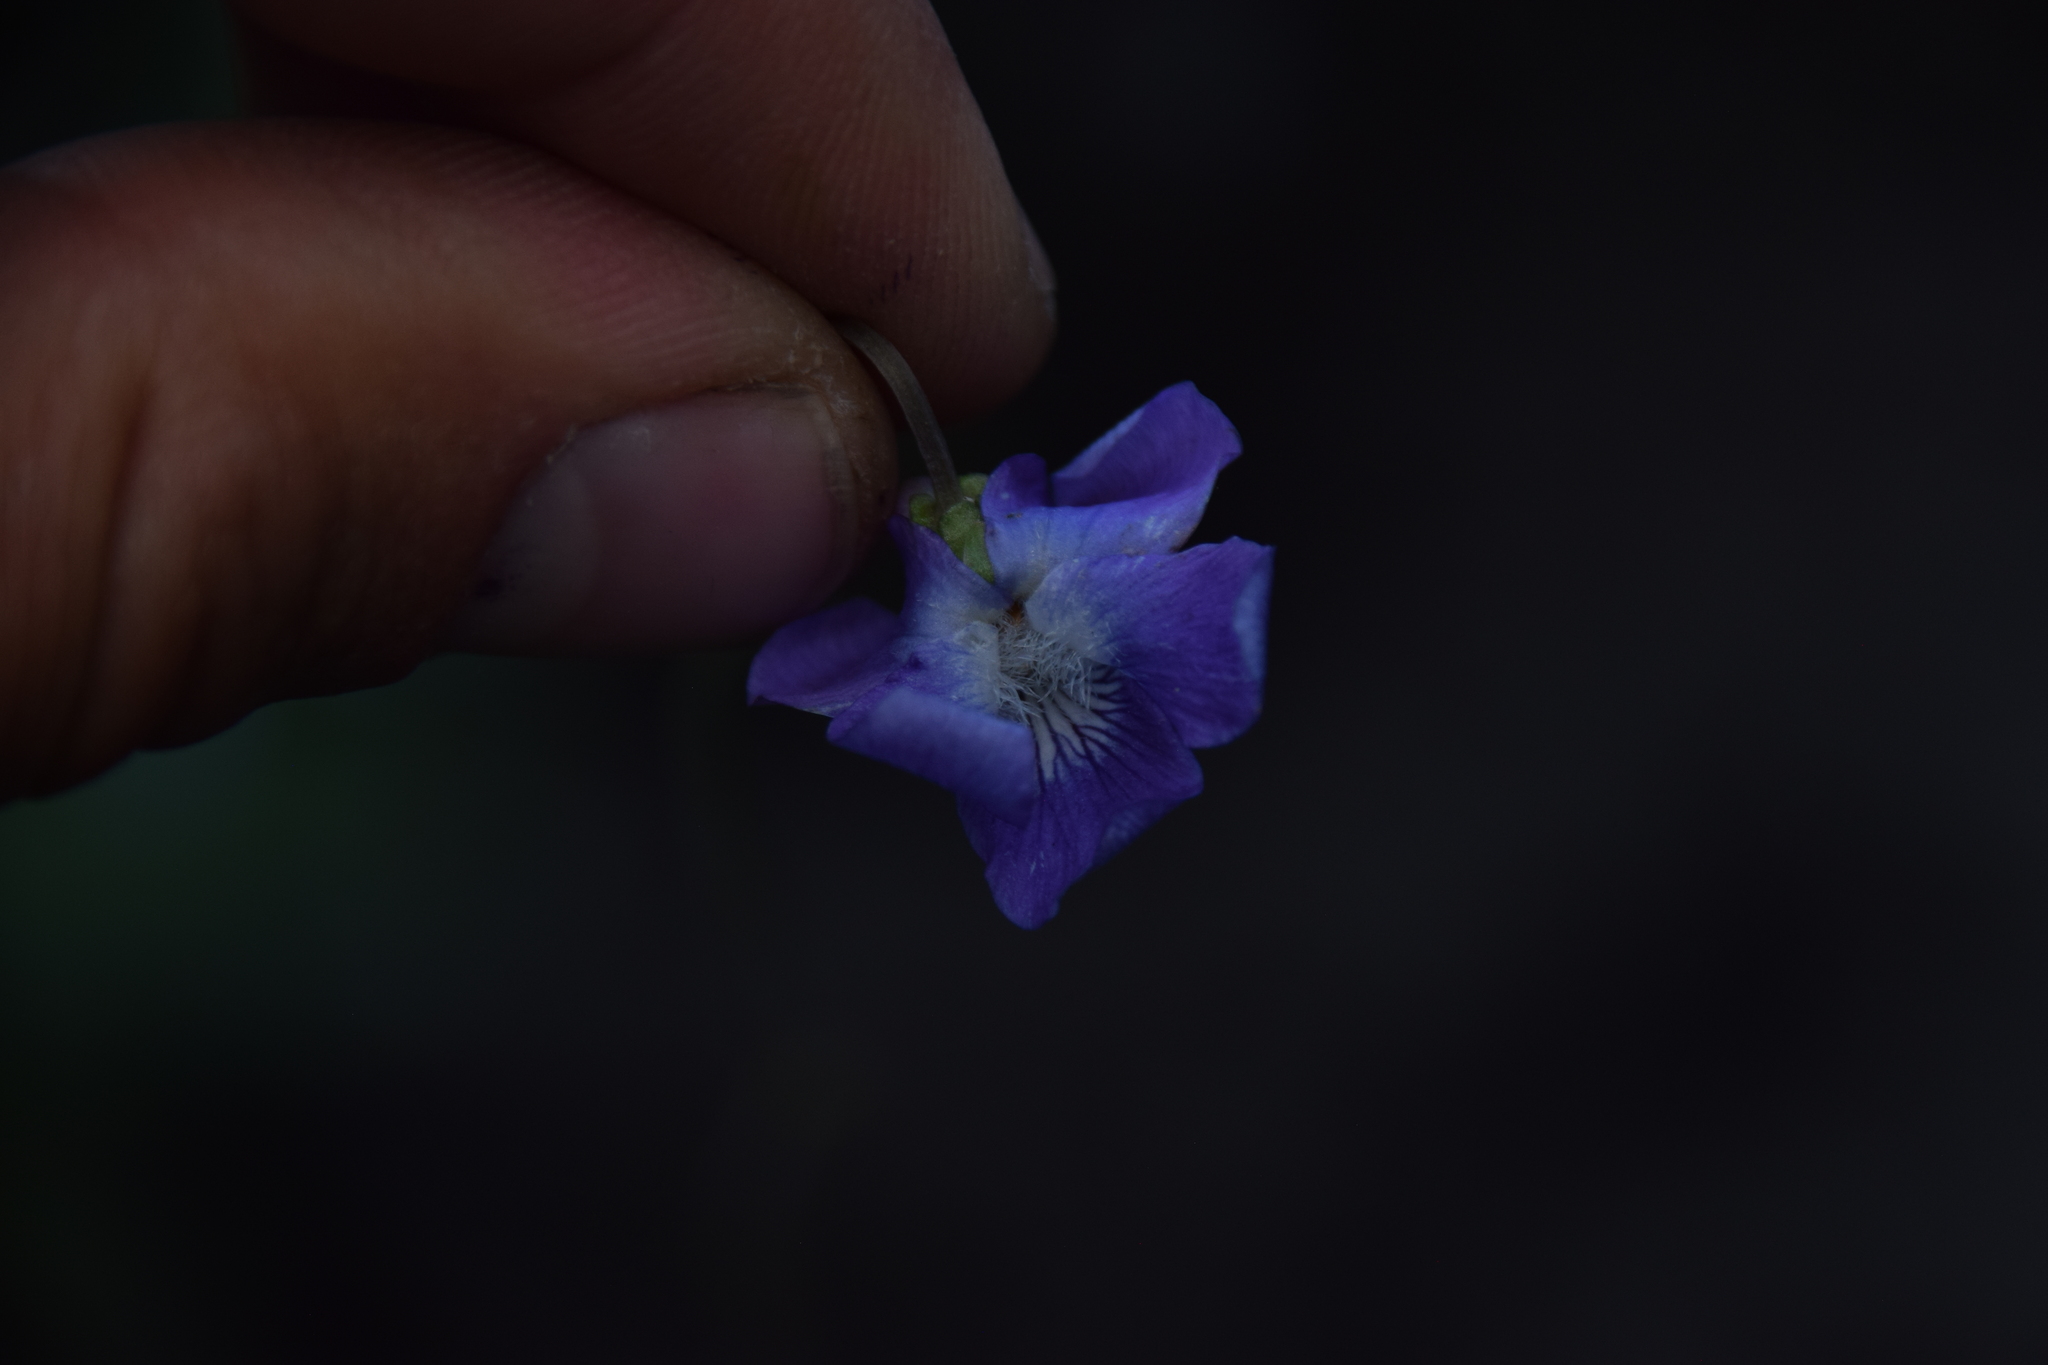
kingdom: Plantae
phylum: Tracheophyta
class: Magnoliopsida
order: Malpighiales
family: Violaceae
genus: Viola
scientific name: Viola nephrophylla
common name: Blue meadow violet
